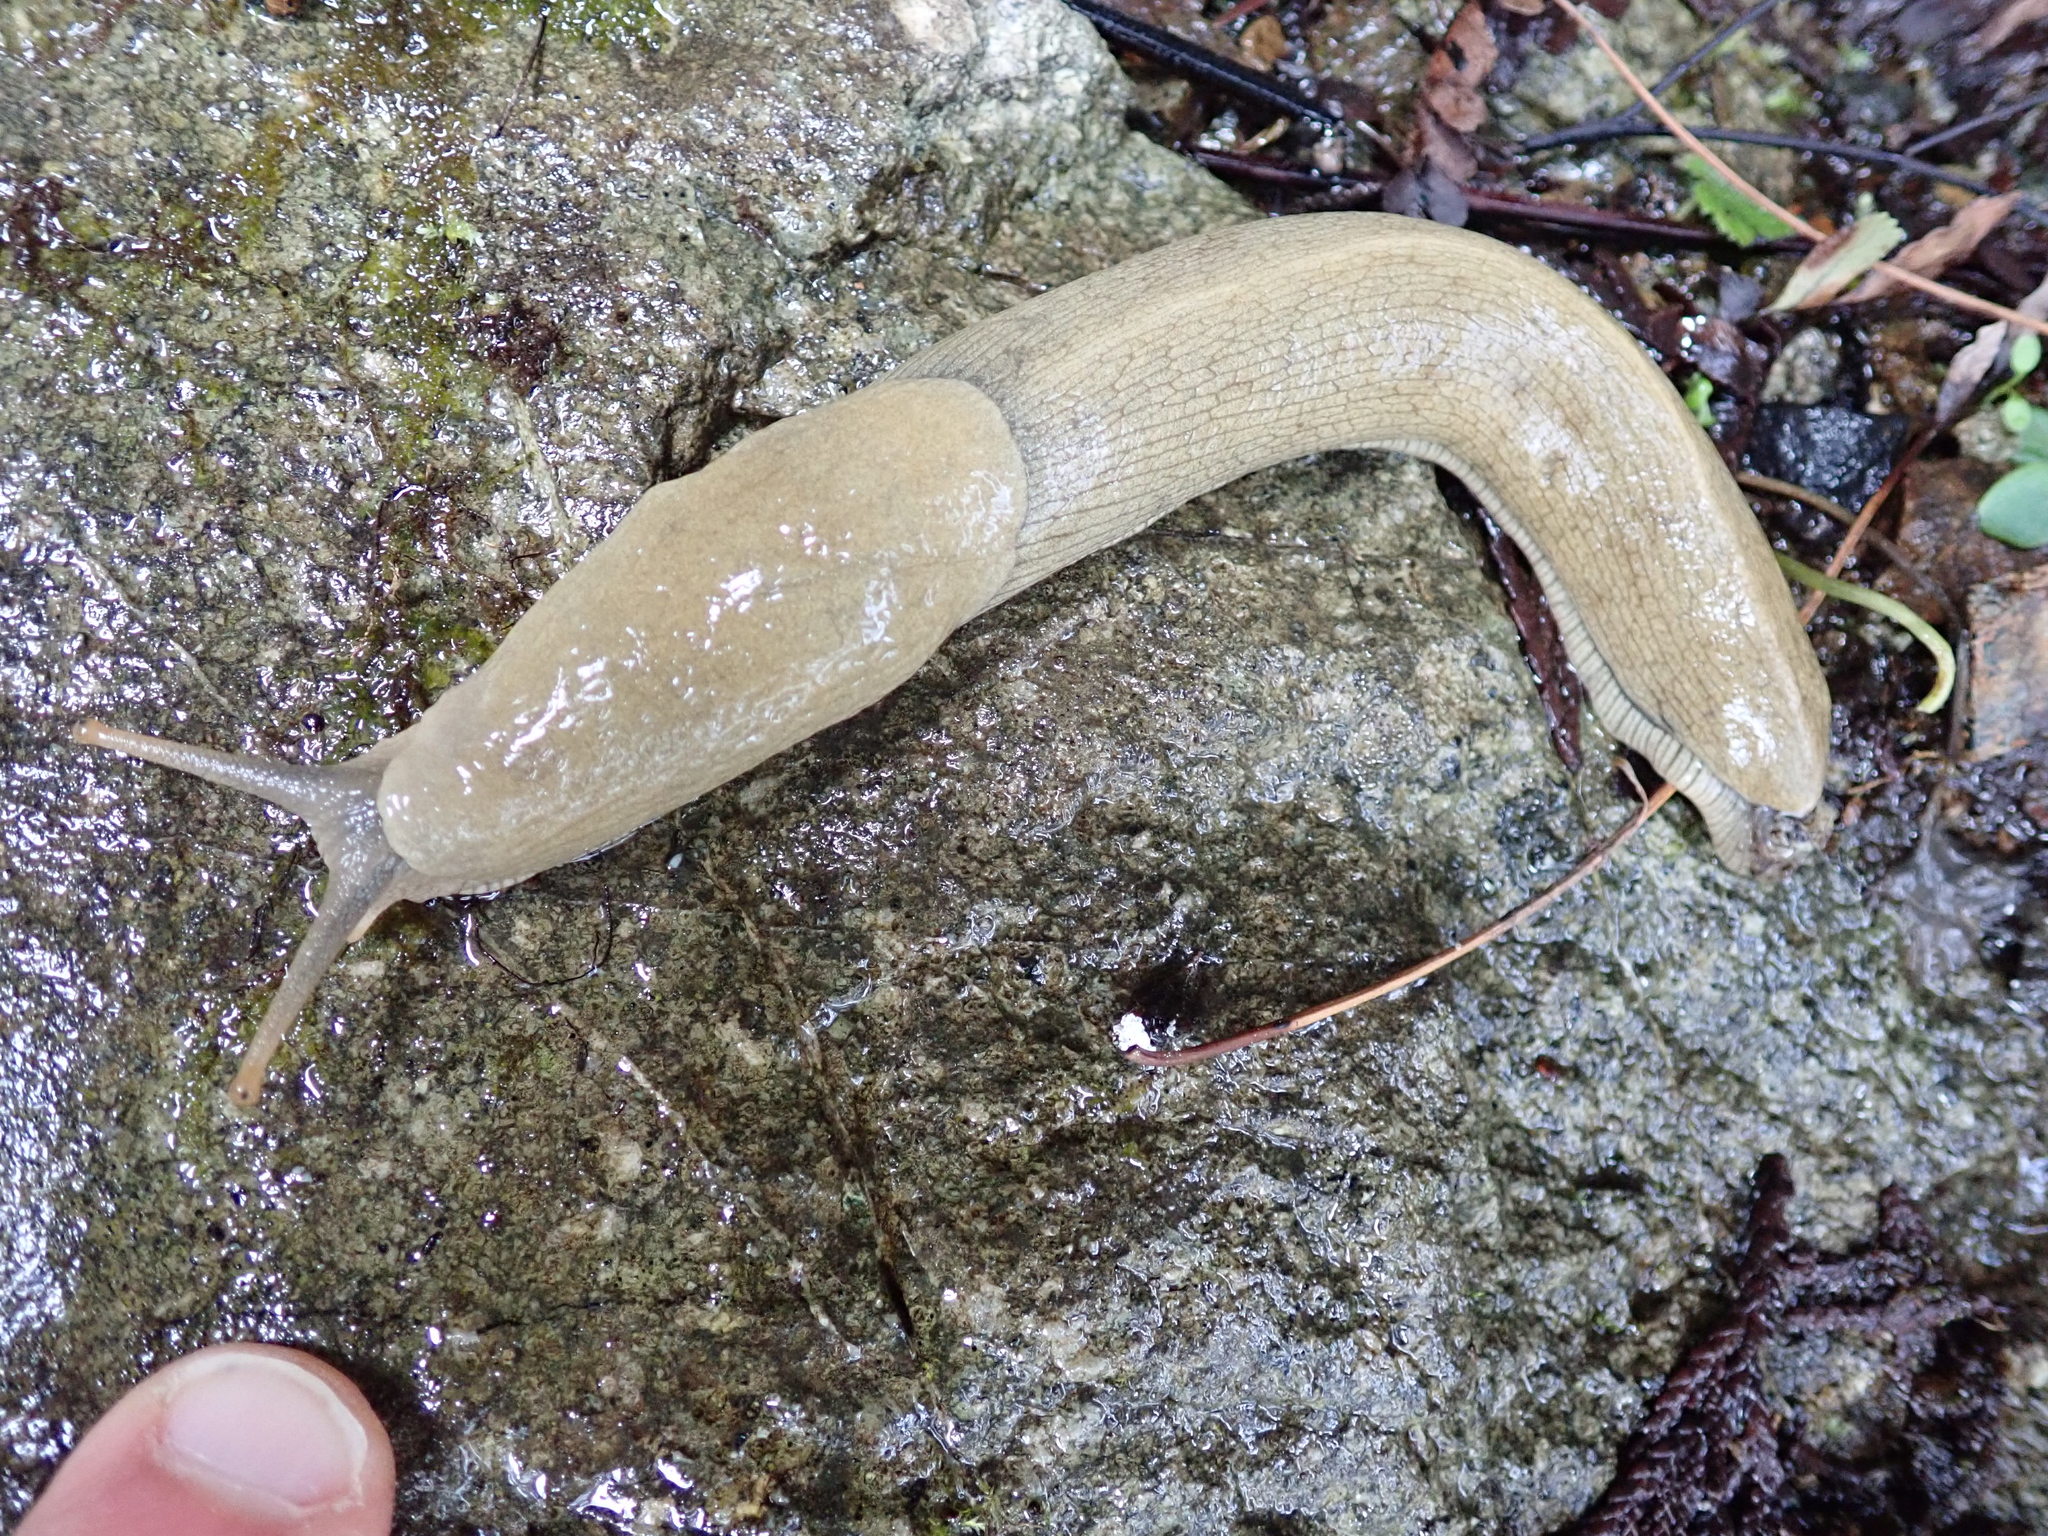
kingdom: Animalia
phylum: Mollusca
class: Gastropoda
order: Stylommatophora
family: Ariolimacidae
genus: Ariolimax
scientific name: Ariolimax columbianus
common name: Pacific banana slug
